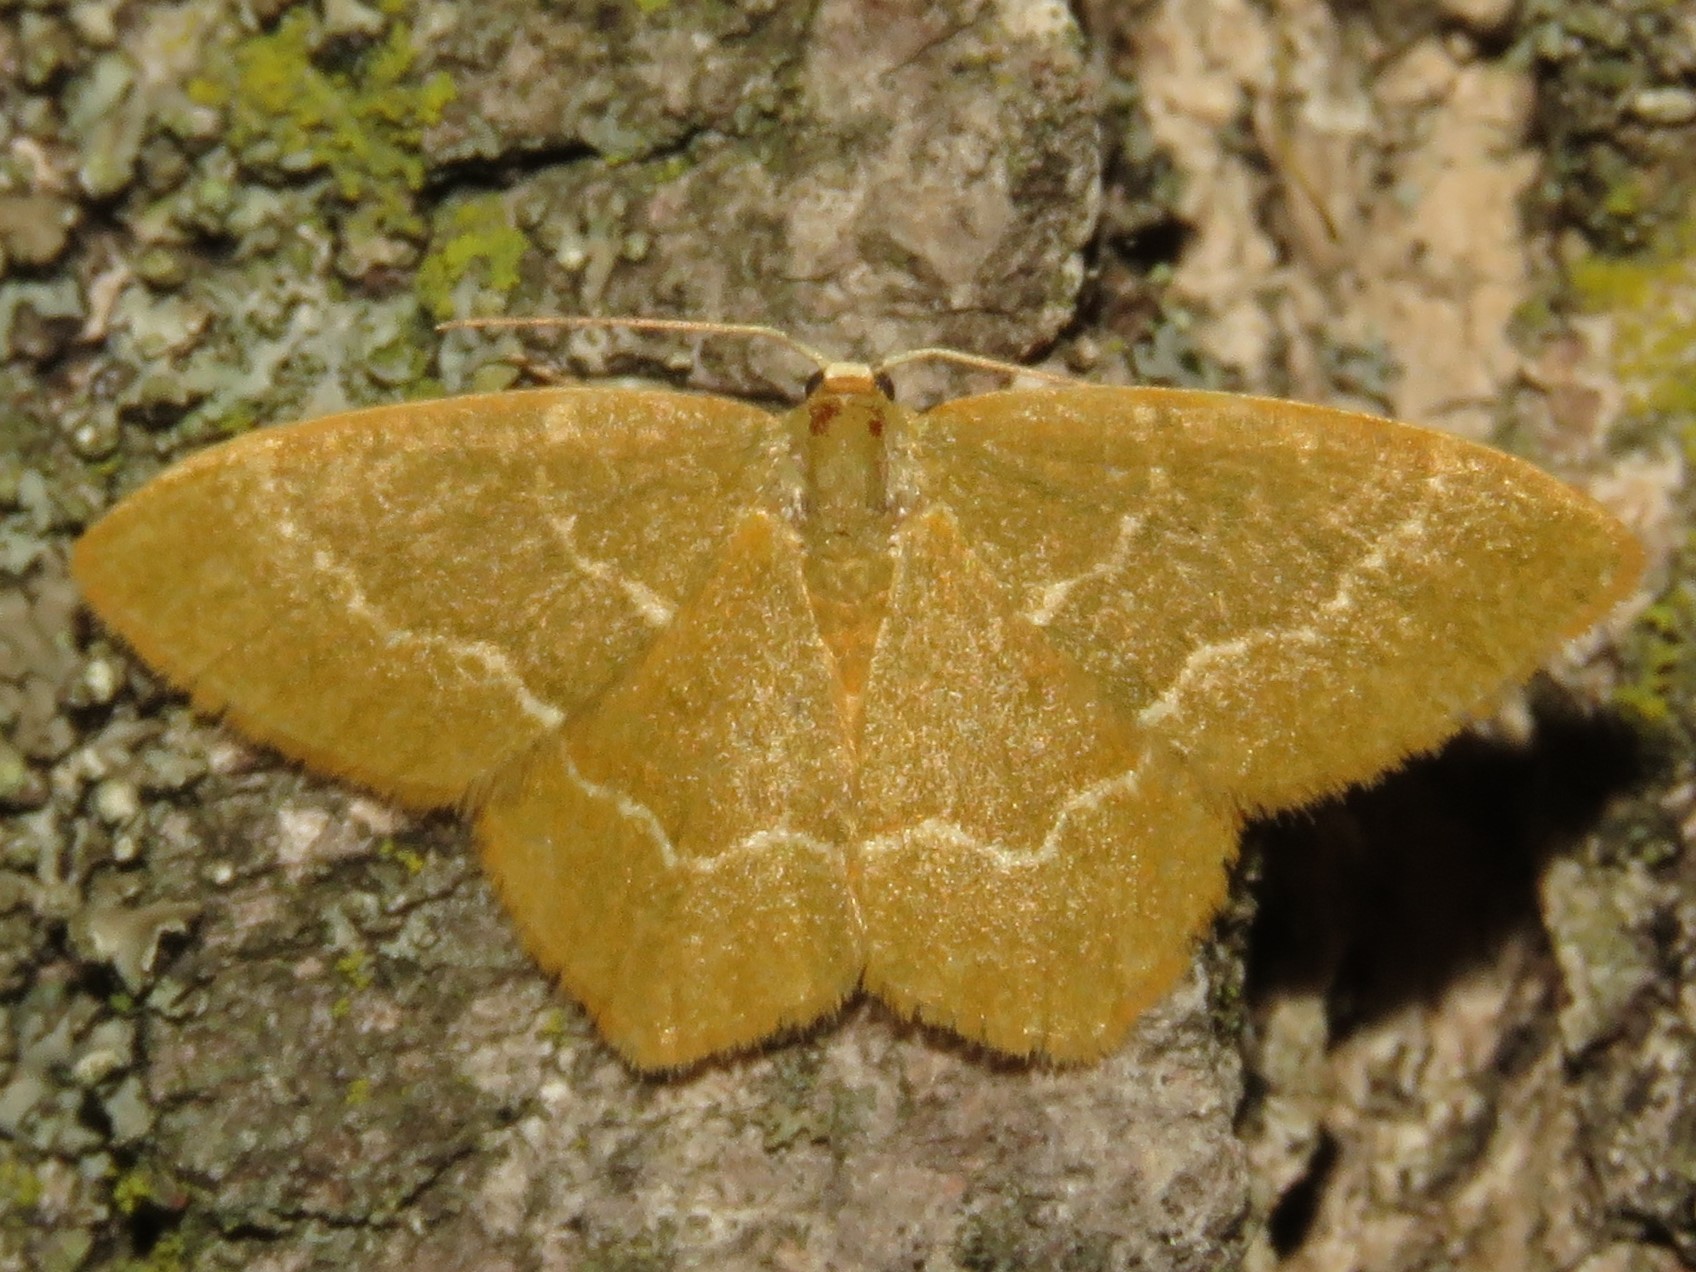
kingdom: Animalia
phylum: Arthropoda
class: Insecta
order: Lepidoptera
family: Geometridae
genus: Thalera
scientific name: Thalera pistasciaria
